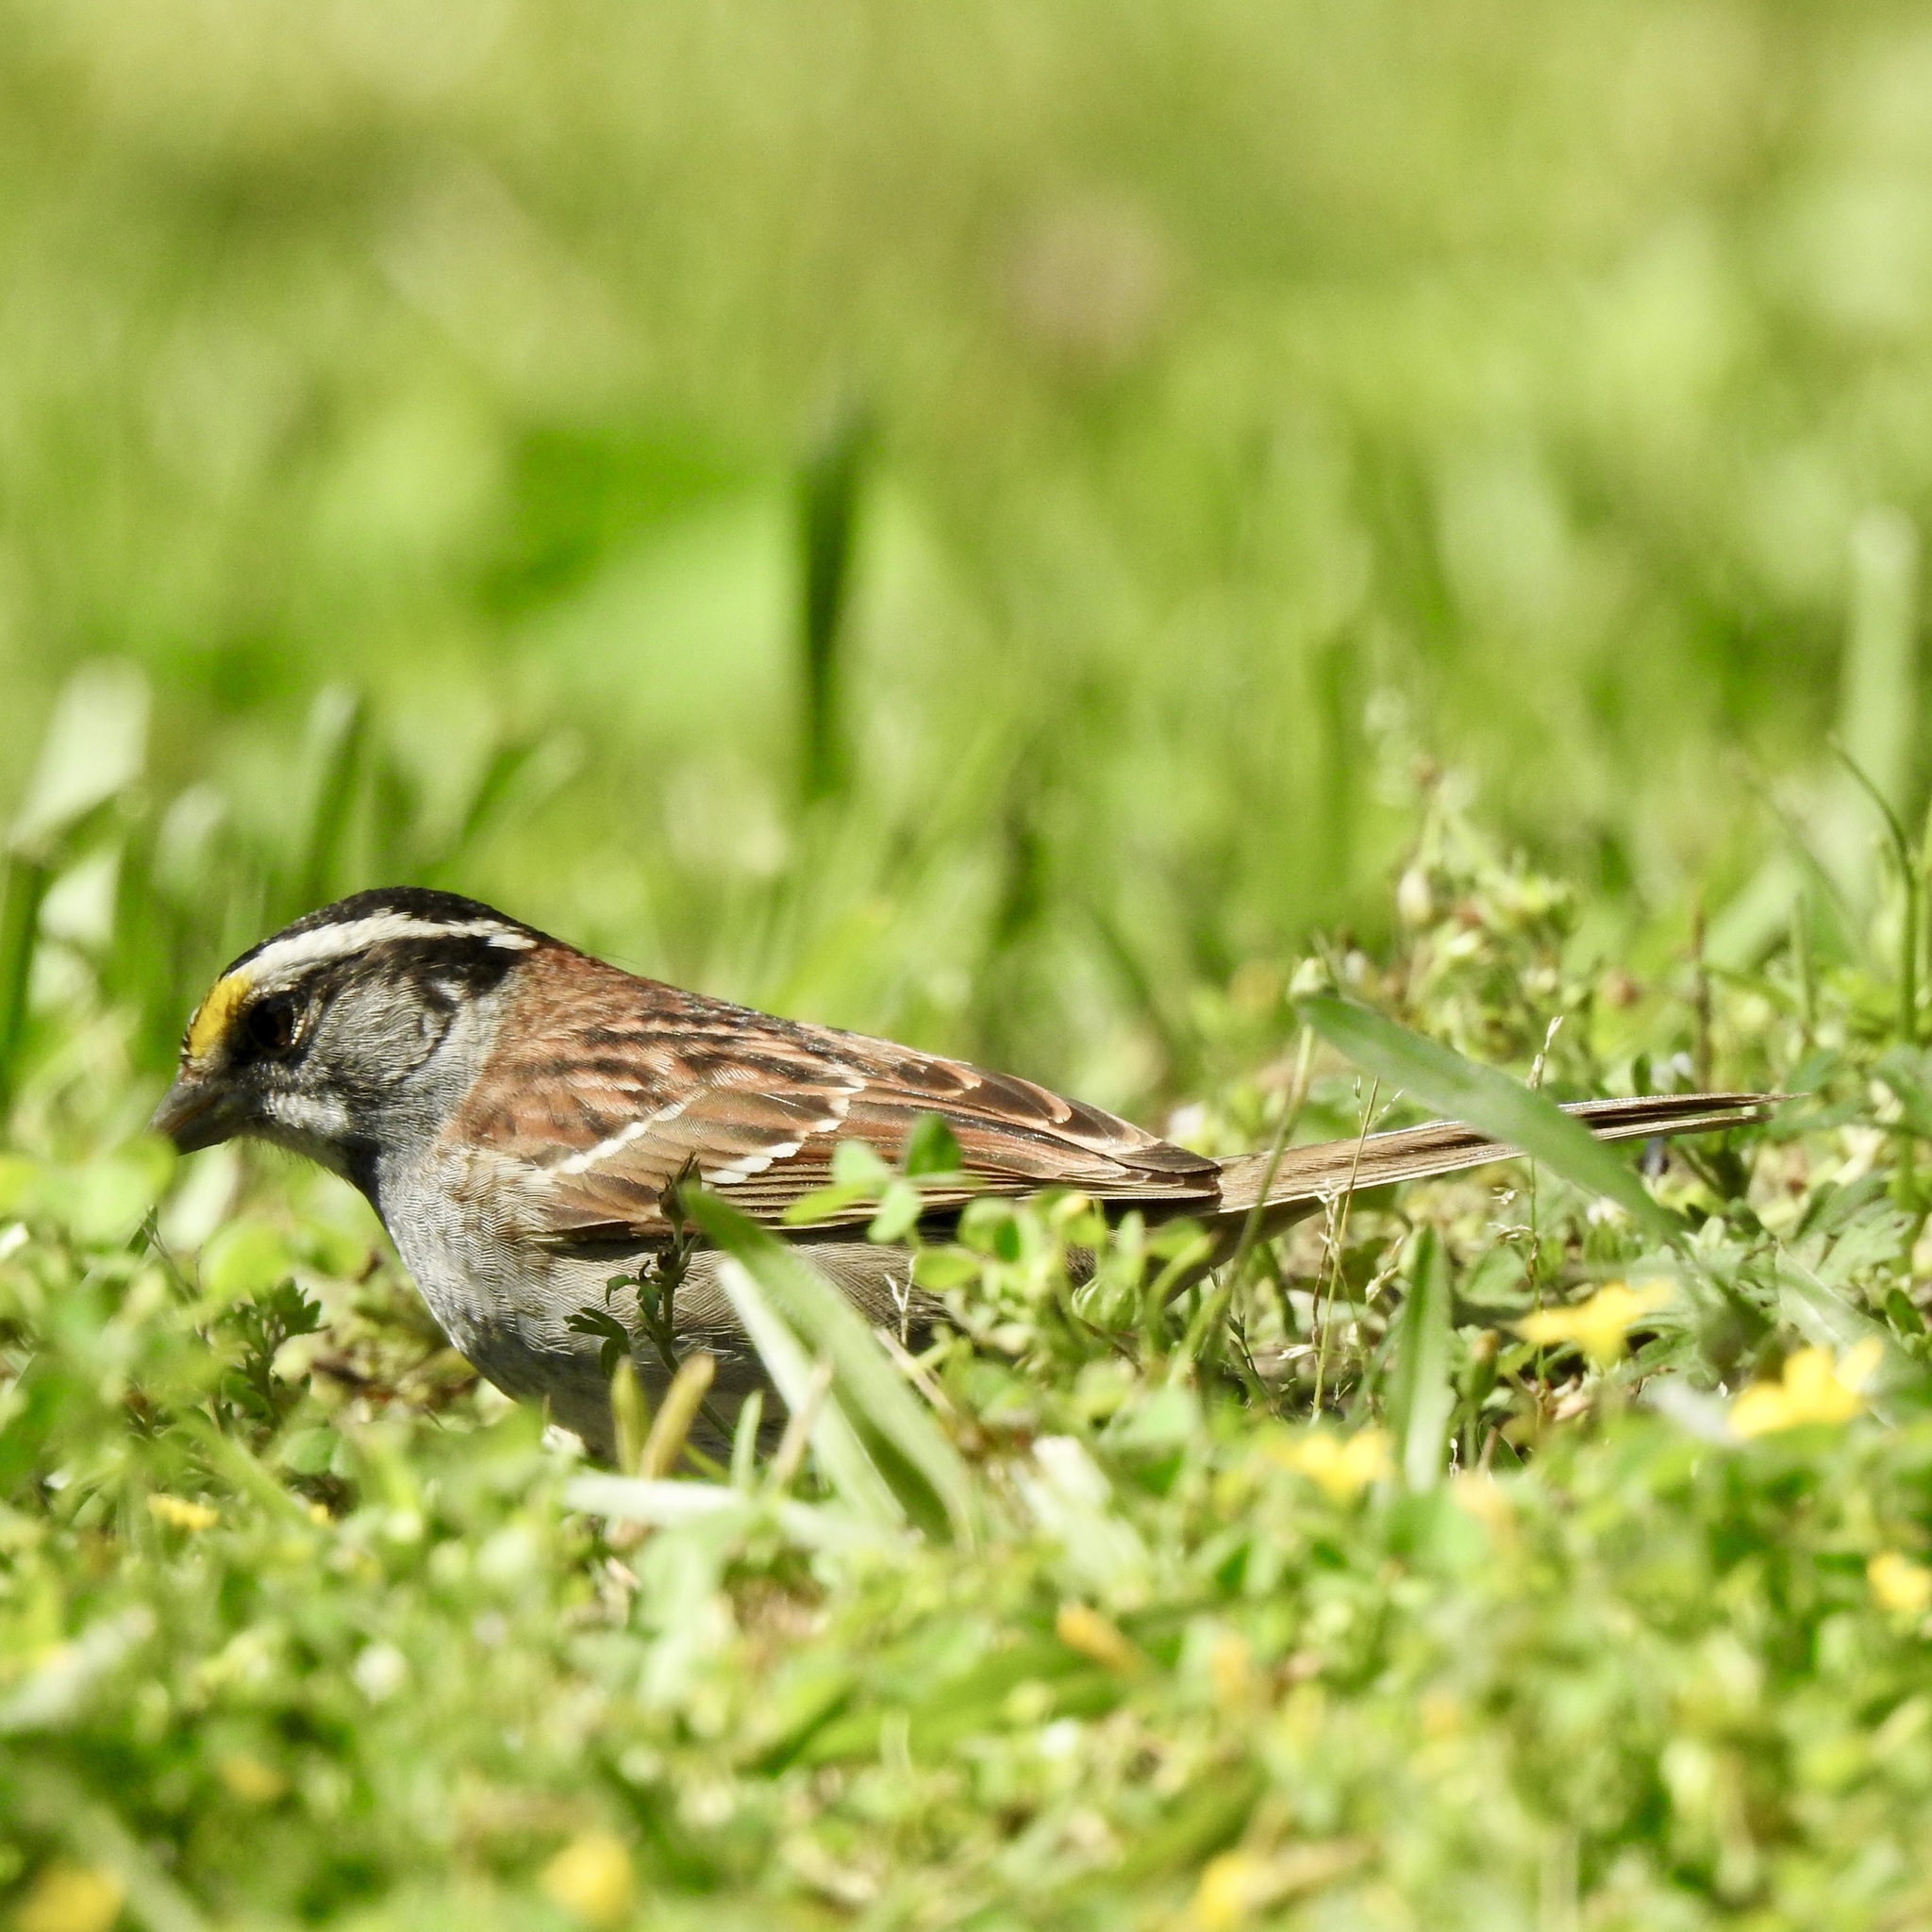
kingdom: Animalia
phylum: Chordata
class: Aves
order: Passeriformes
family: Passerellidae
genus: Zonotrichia
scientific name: Zonotrichia albicollis
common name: White-throated sparrow
